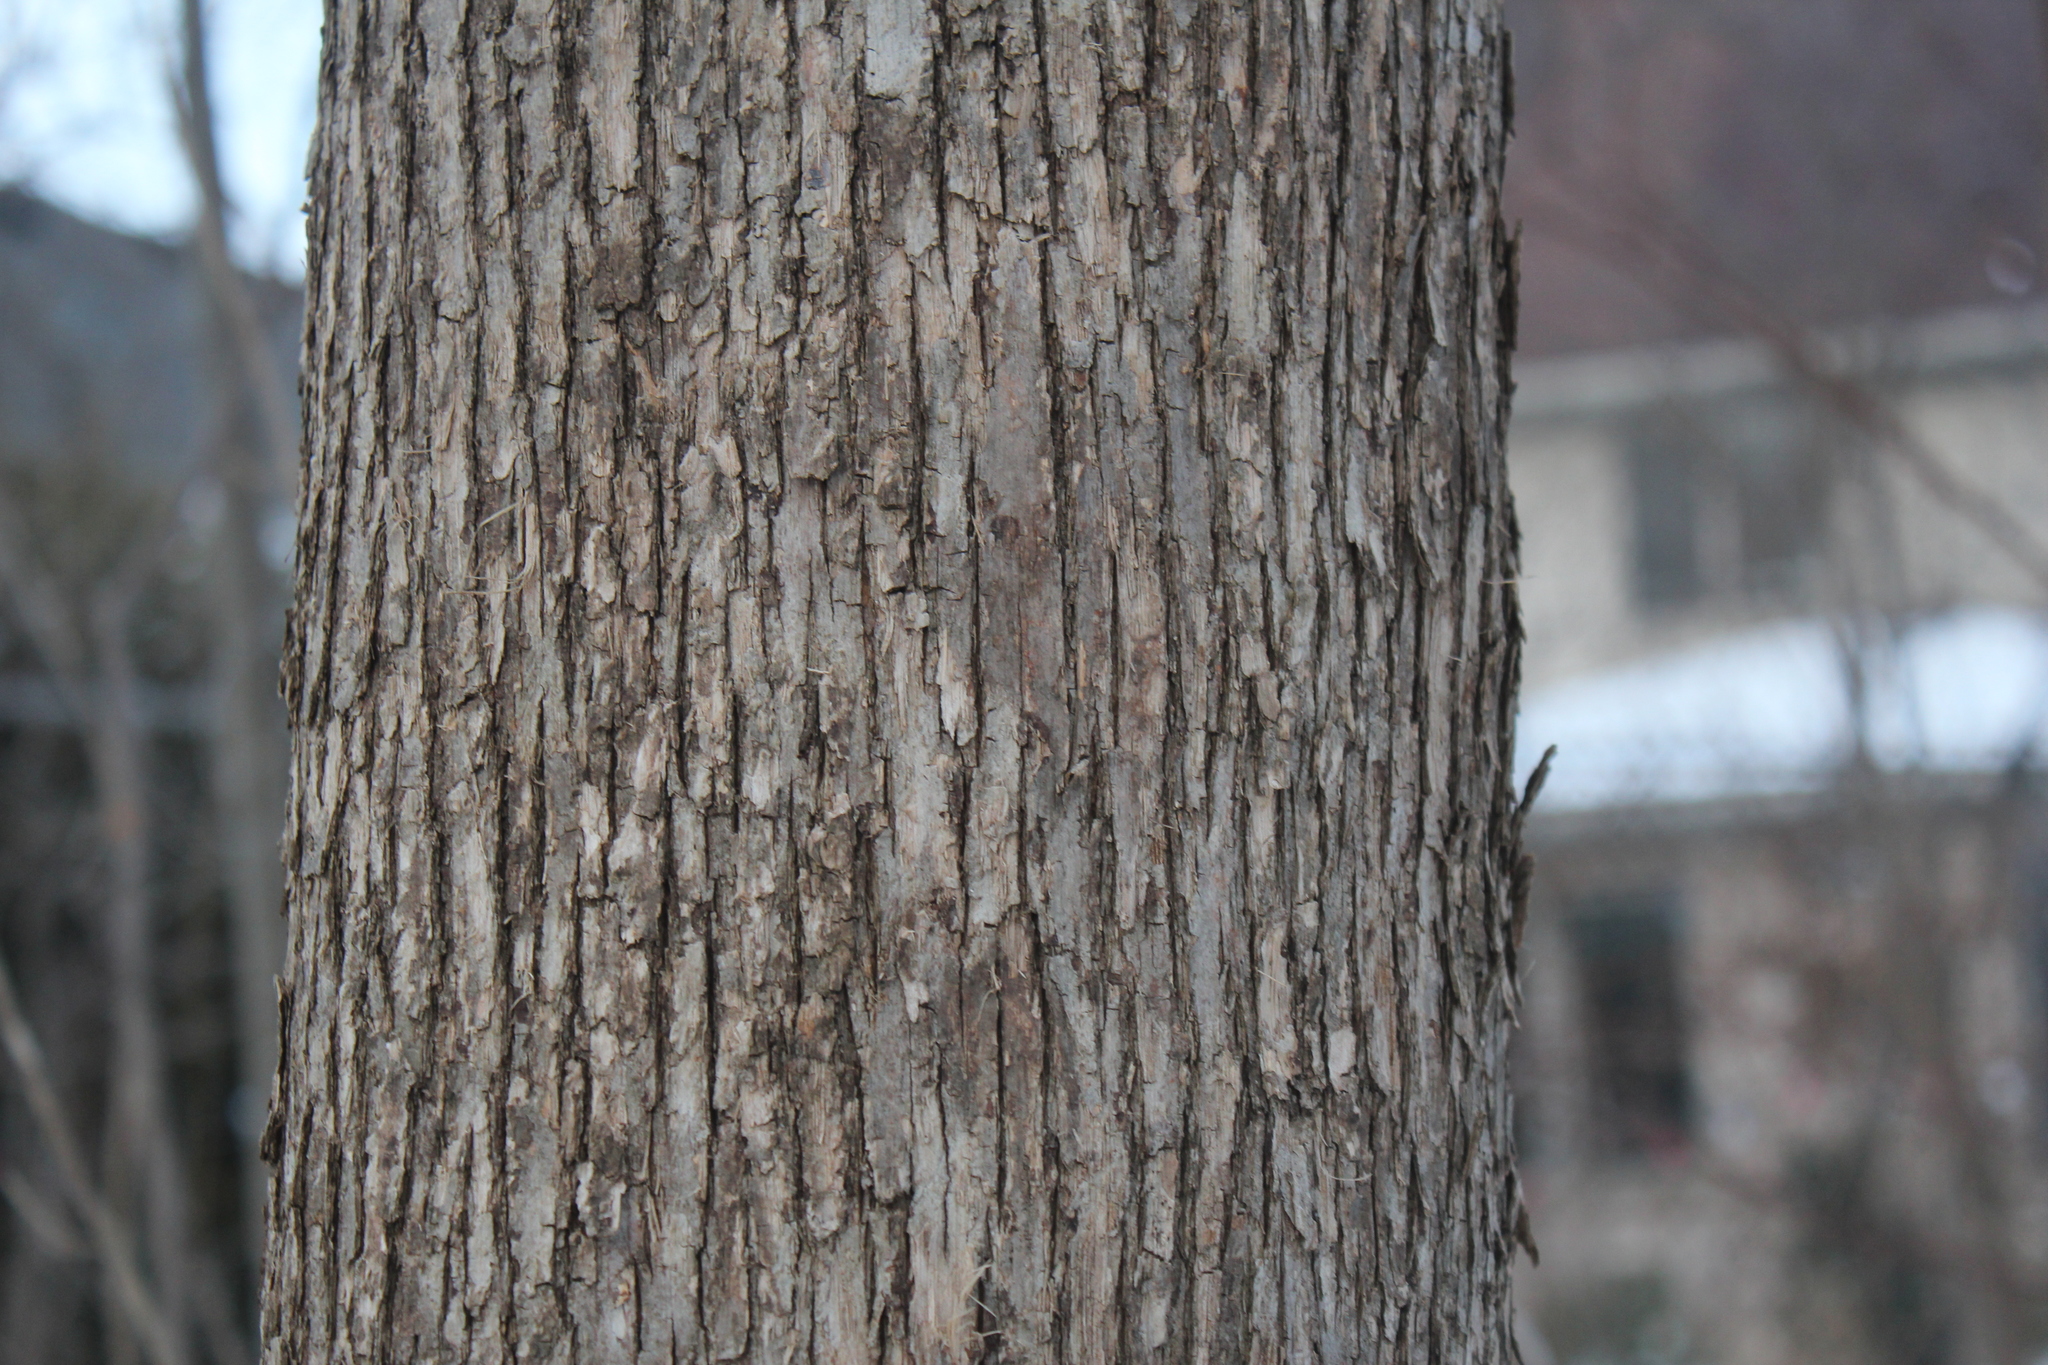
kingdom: Plantae
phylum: Tracheophyta
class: Magnoliopsida
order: Fagales
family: Betulaceae
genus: Ostrya
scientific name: Ostrya virginiana
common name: Ironwood
